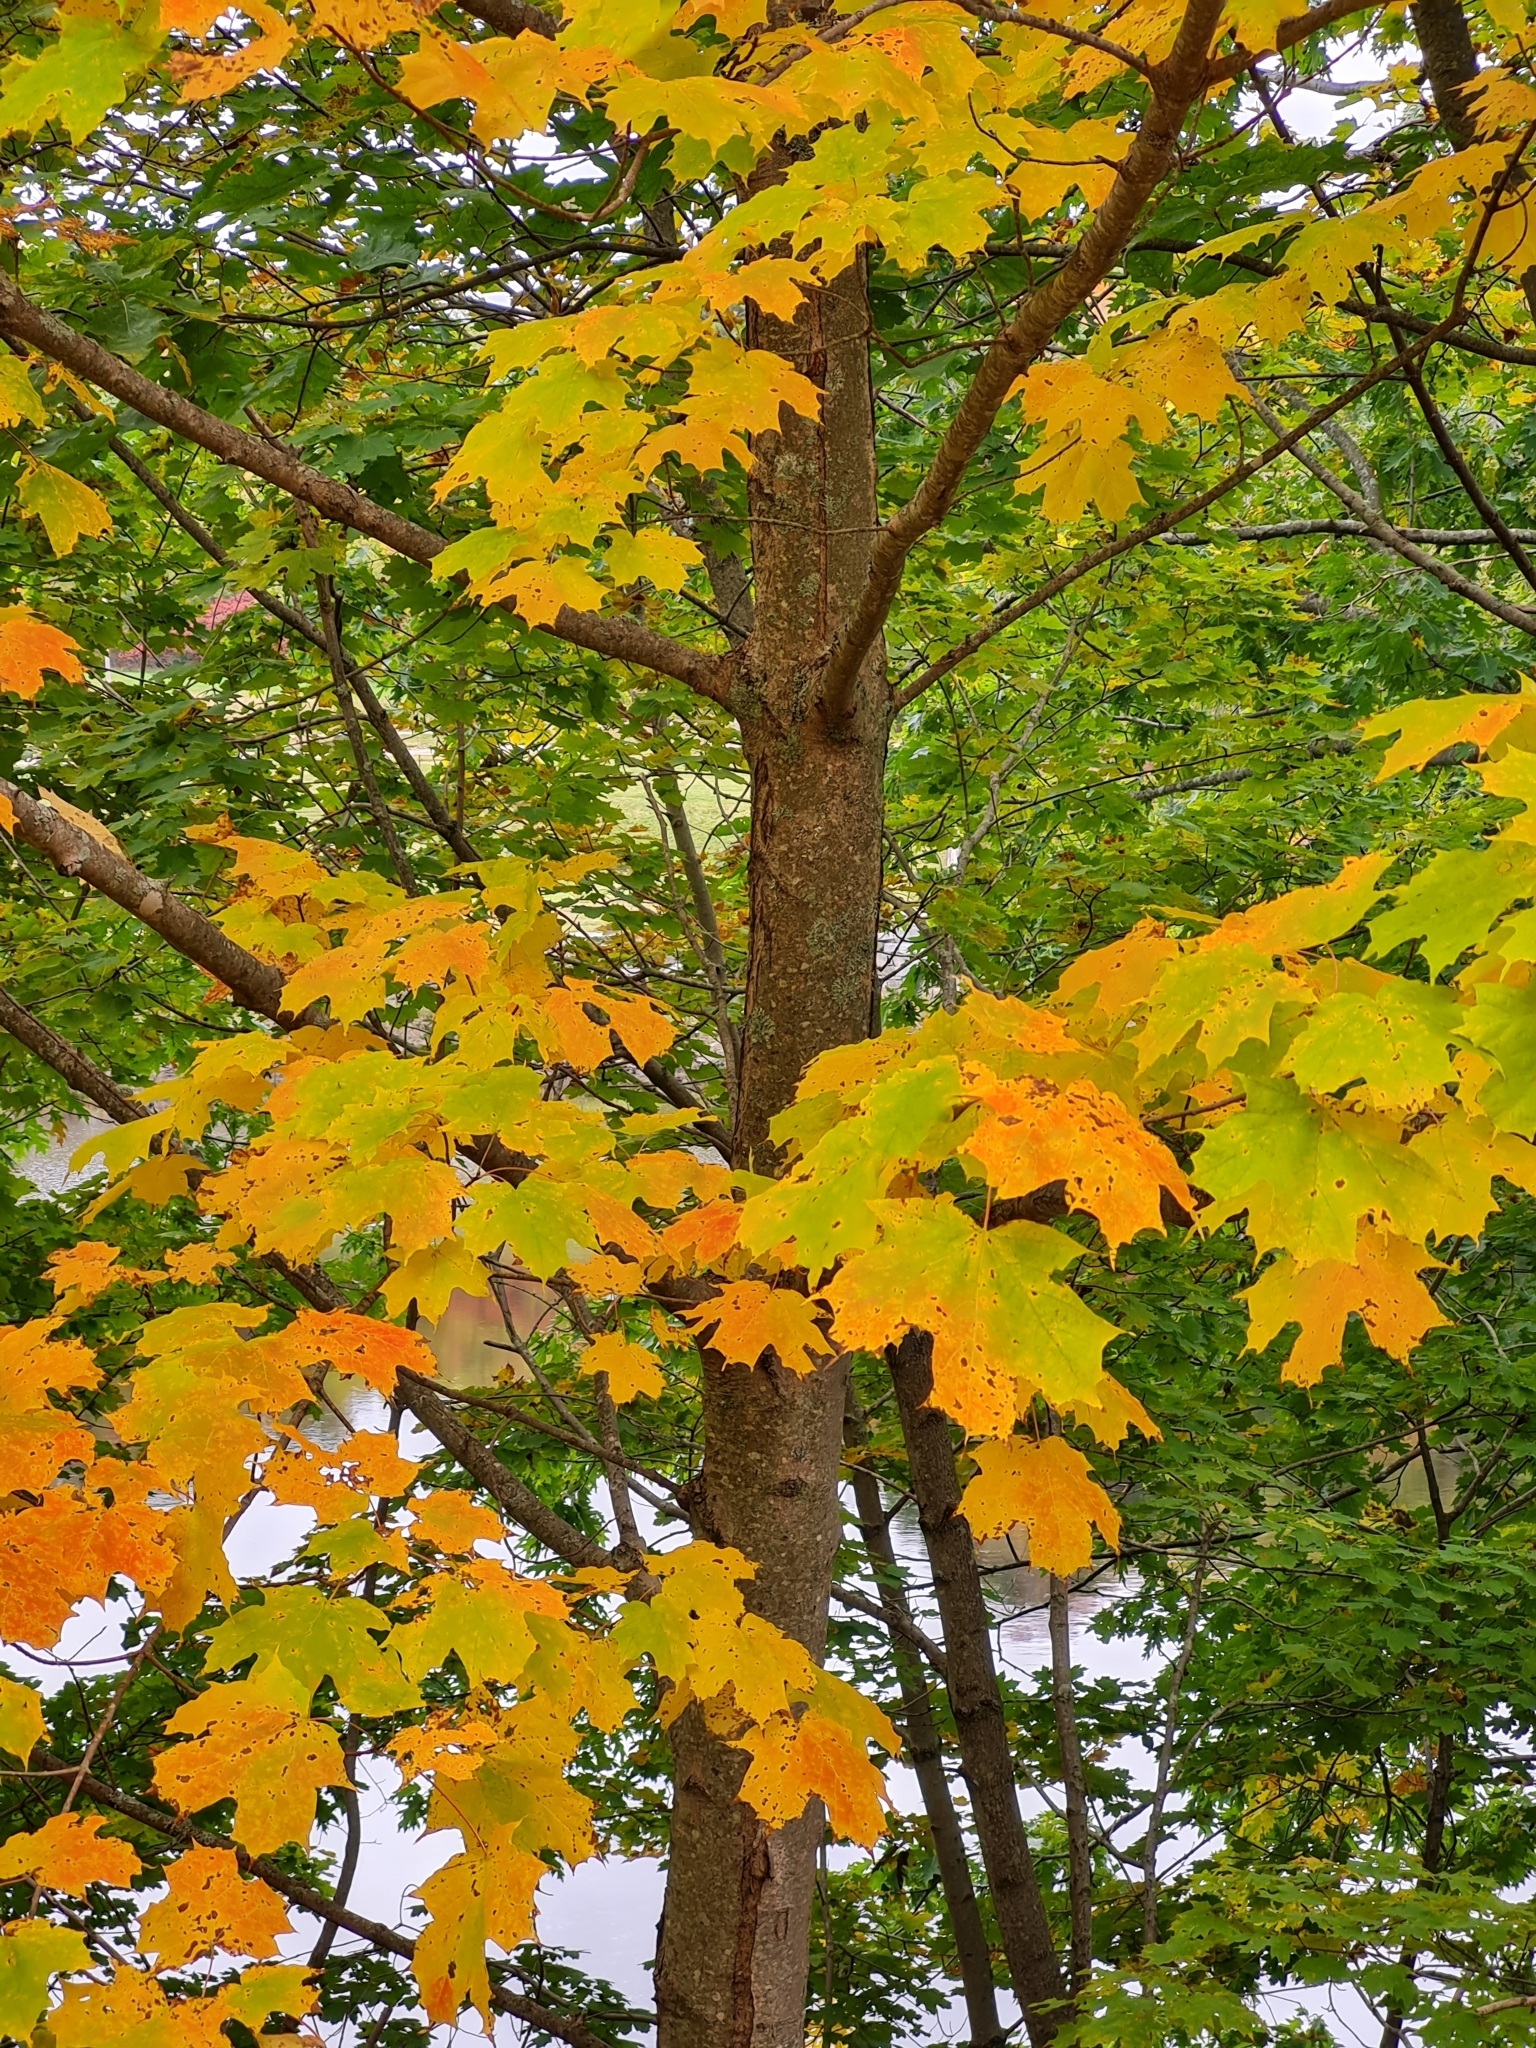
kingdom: Plantae
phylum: Tracheophyta
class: Magnoliopsida
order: Sapindales
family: Sapindaceae
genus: Acer
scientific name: Acer saccharum
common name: Sugar maple
